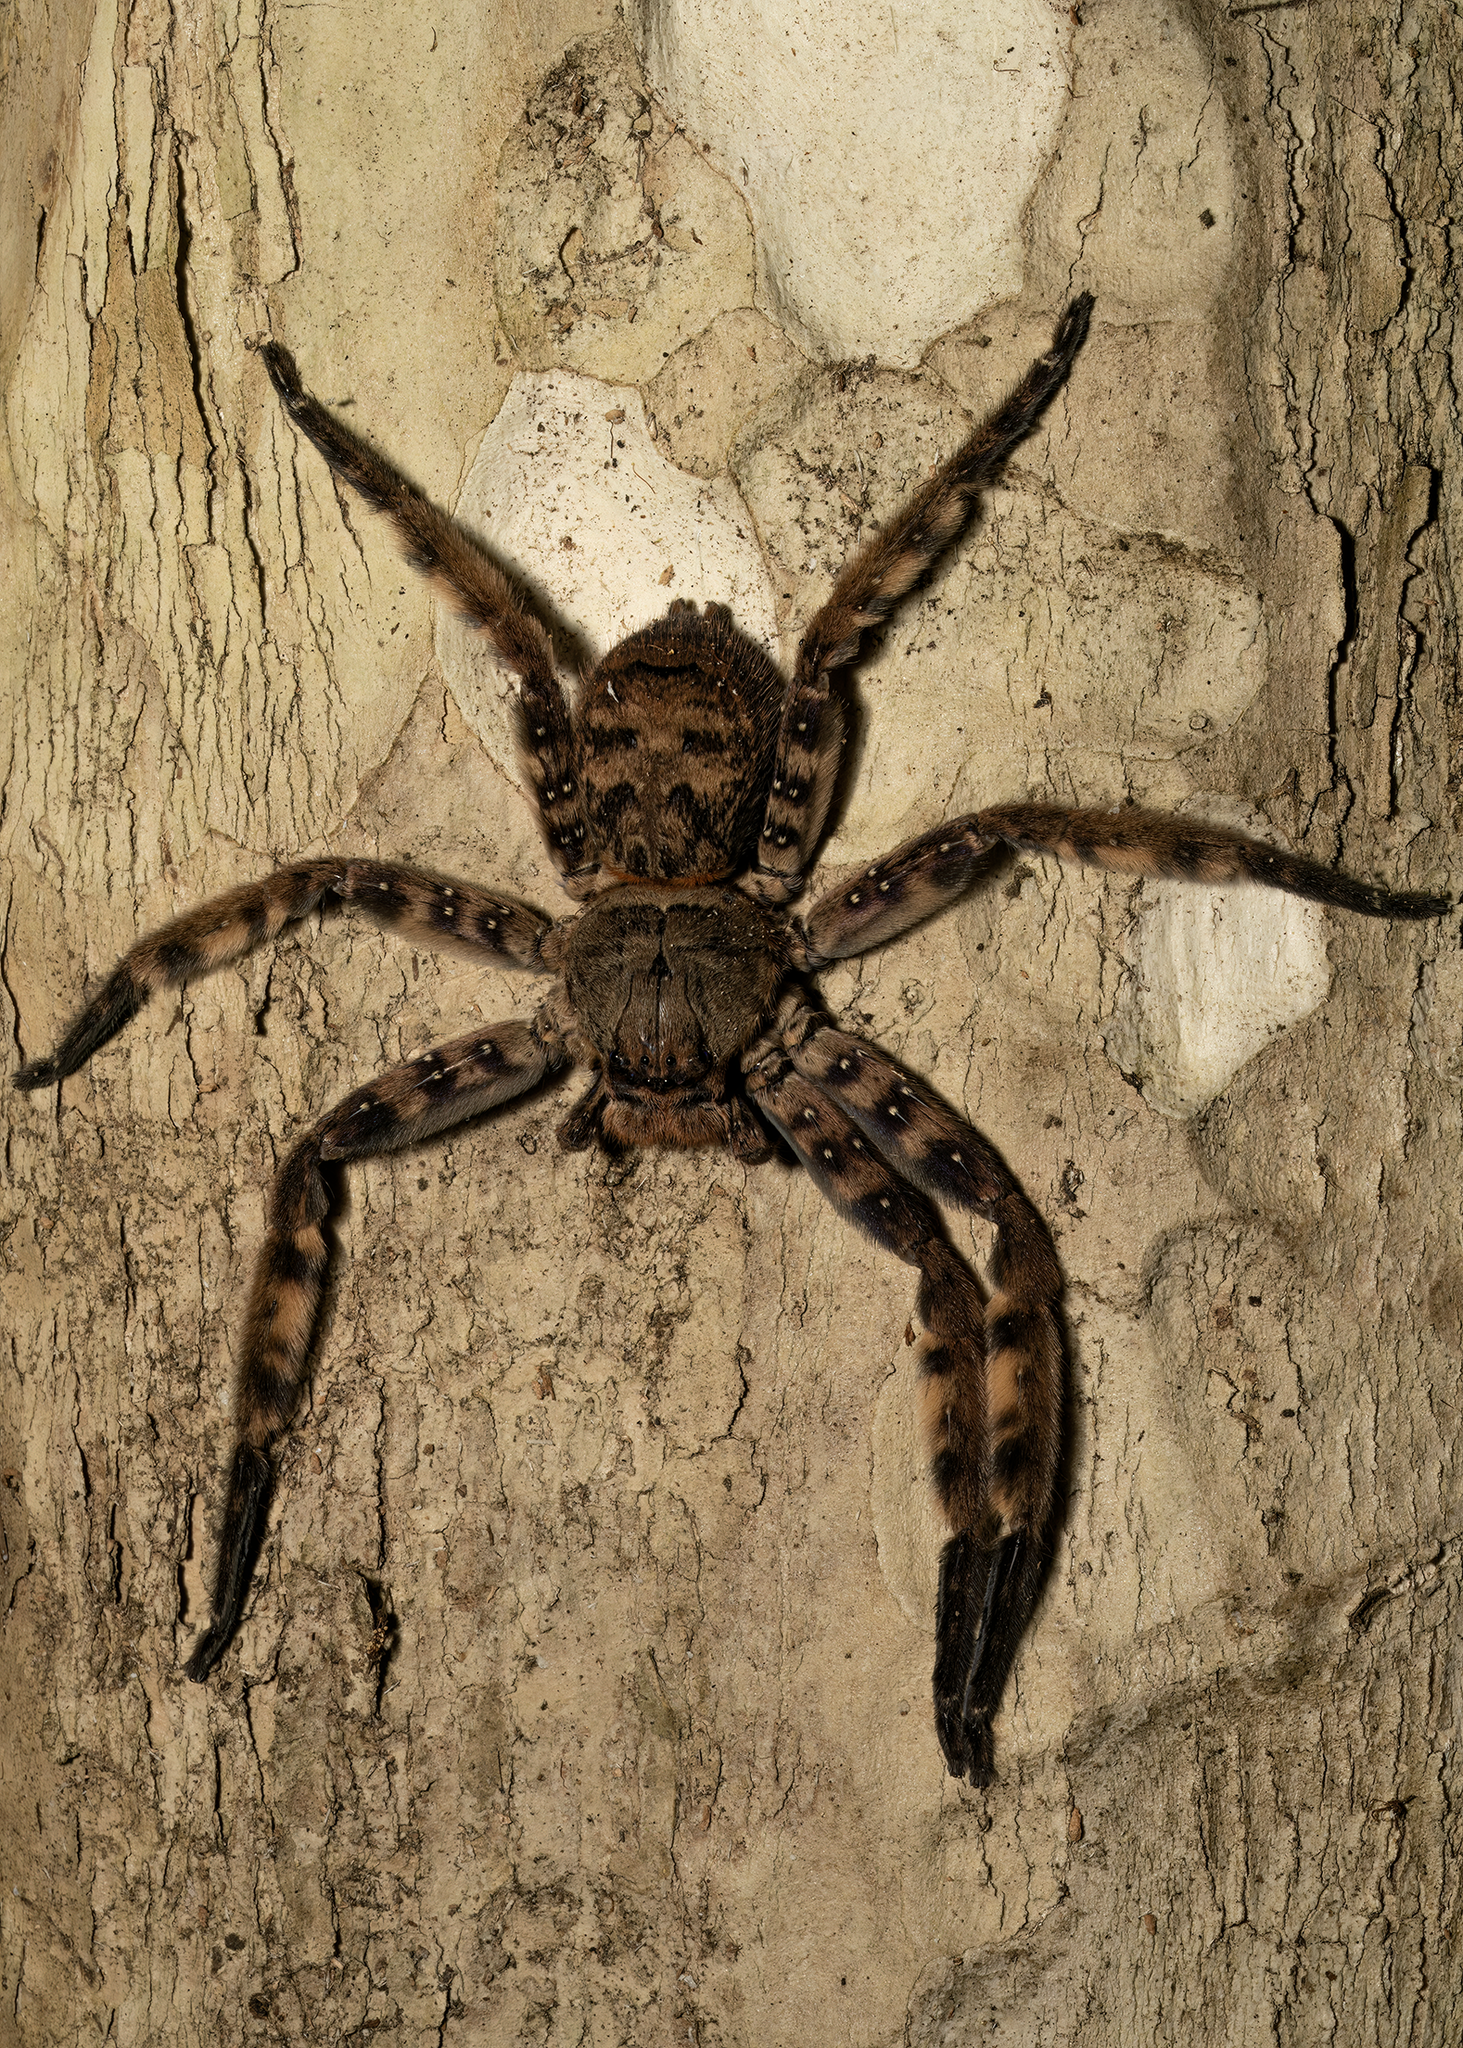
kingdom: Animalia
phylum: Arthropoda
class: Arachnida
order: Araneae
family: Sparassidae
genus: Heteropoda
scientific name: Heteropoda lunula
